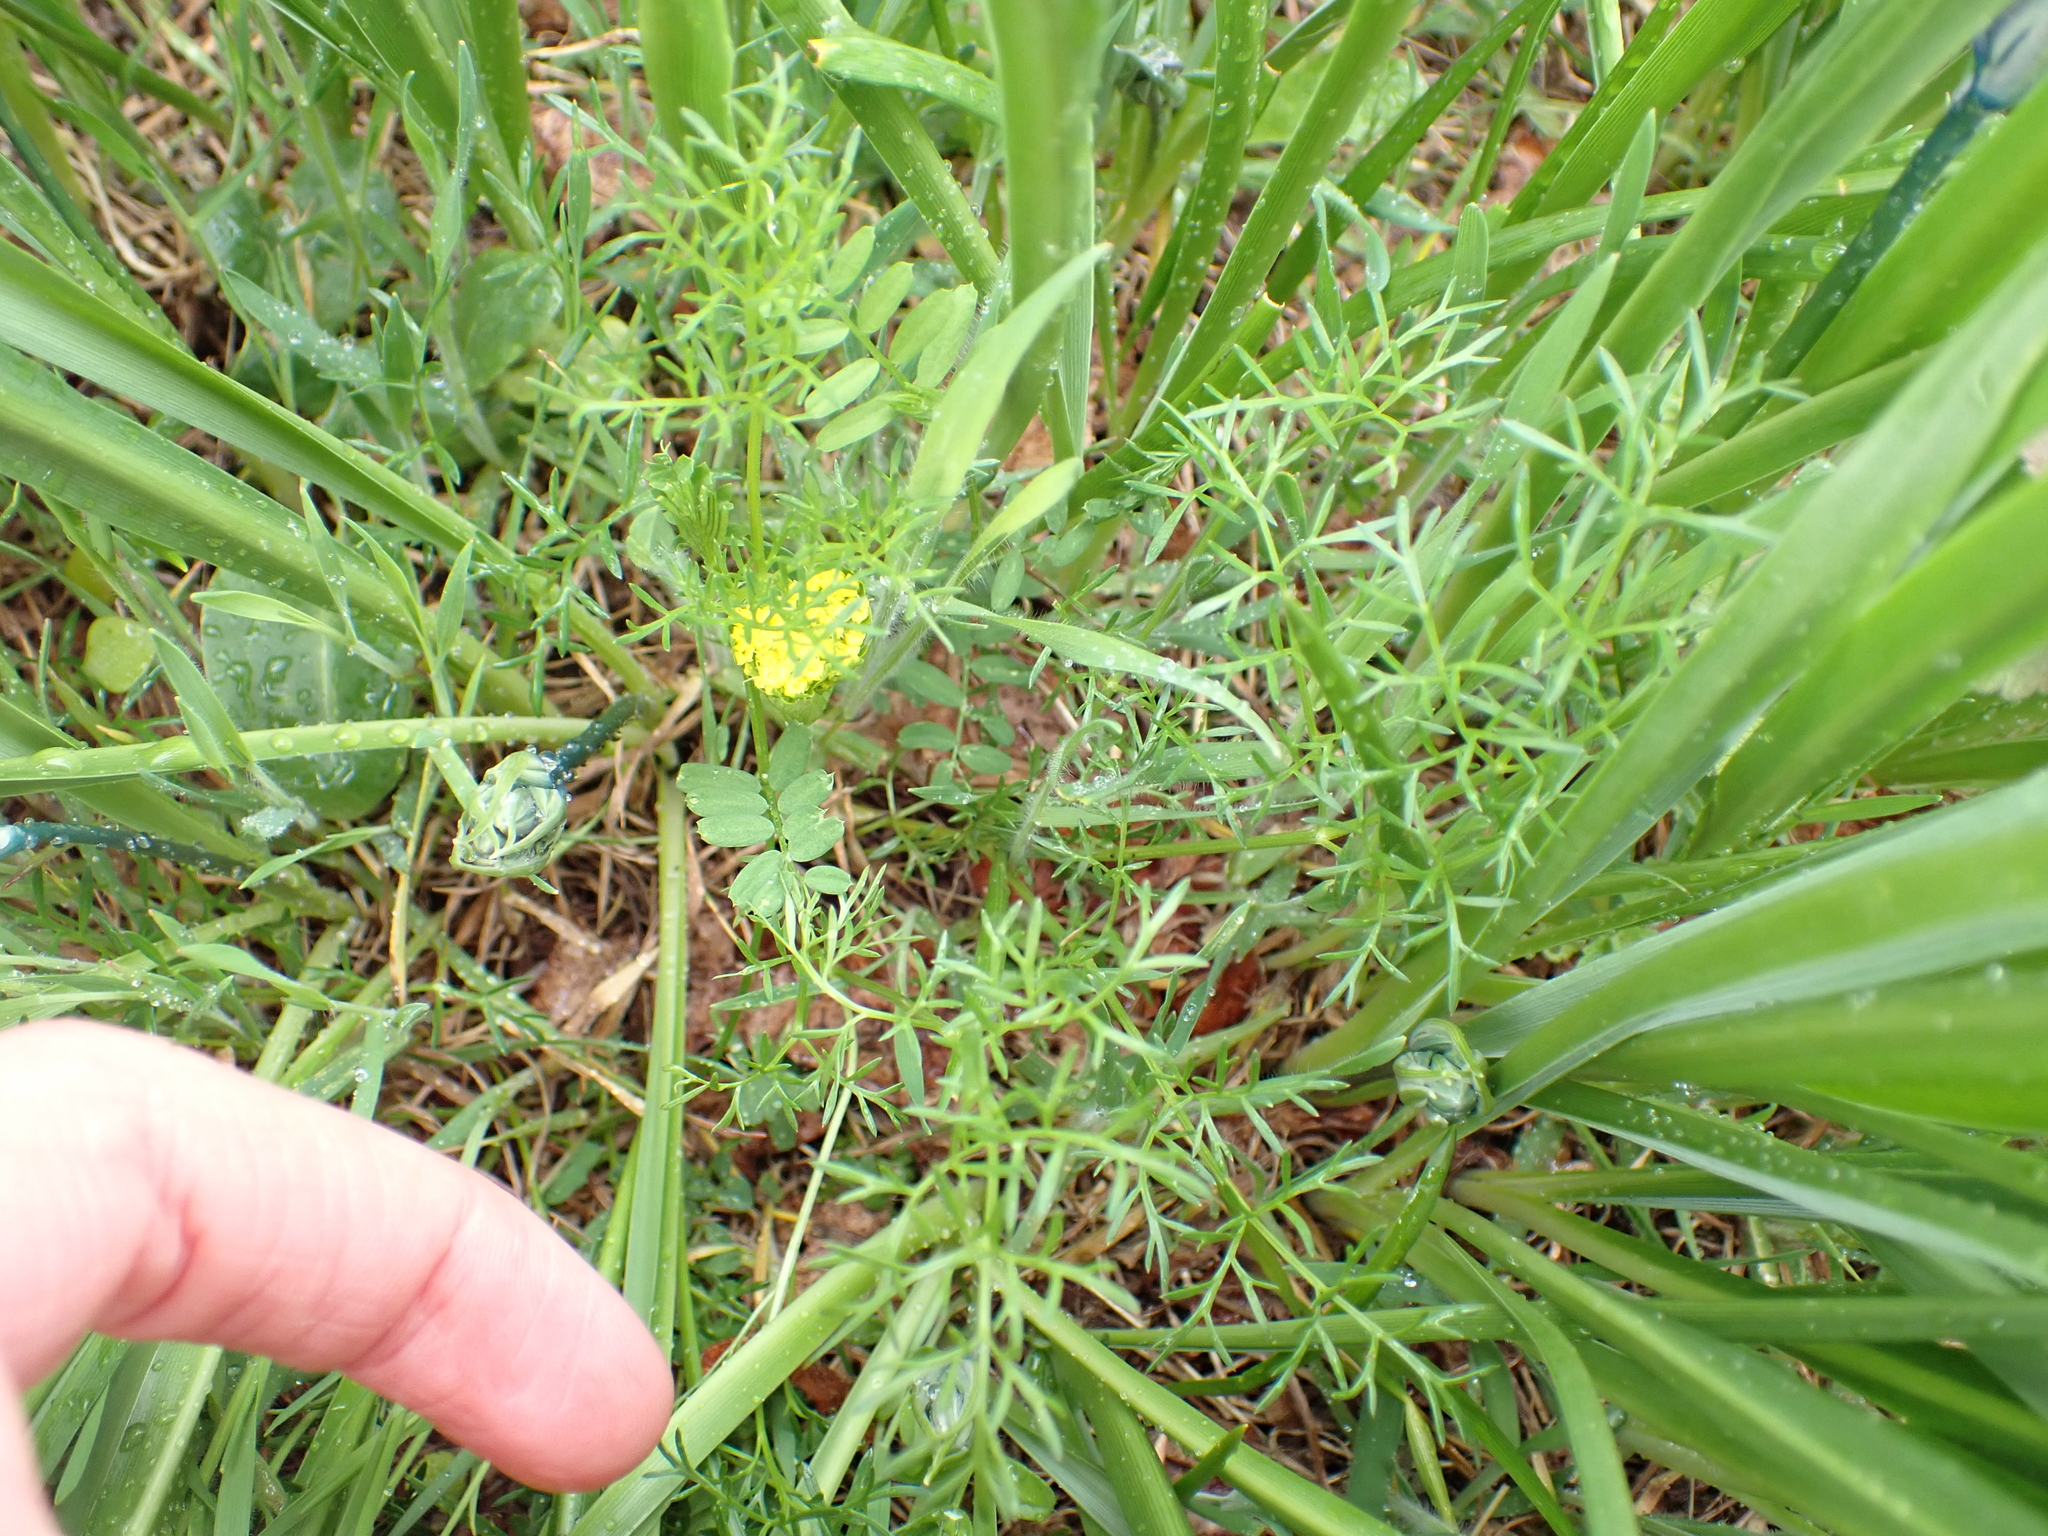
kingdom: Plantae
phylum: Tracheophyta
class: Magnoliopsida
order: Apiales
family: Apiaceae
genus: Lomatium
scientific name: Lomatium utriculatum
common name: Fine-leaf desert-parsley
